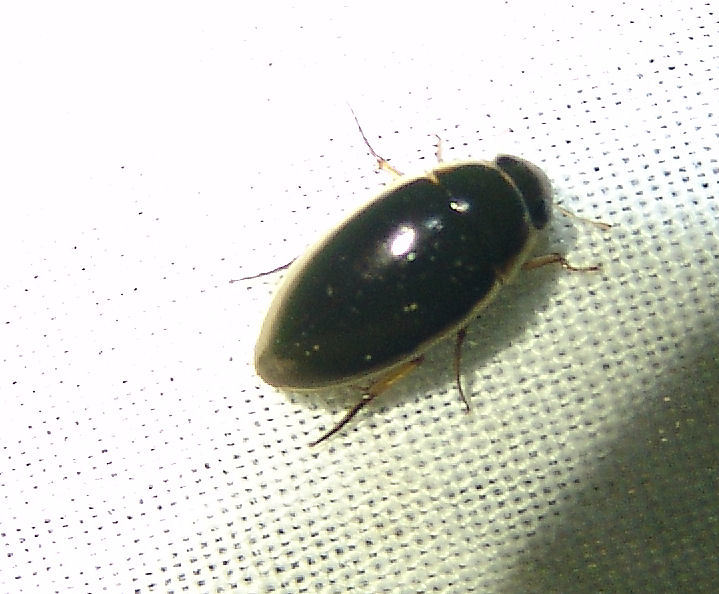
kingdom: Animalia
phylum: Arthropoda
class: Insecta
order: Coleoptera
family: Hydrophilidae
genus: Tropisternus
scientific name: Tropisternus lateralis
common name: Lateral-banded water scavenger beetle
